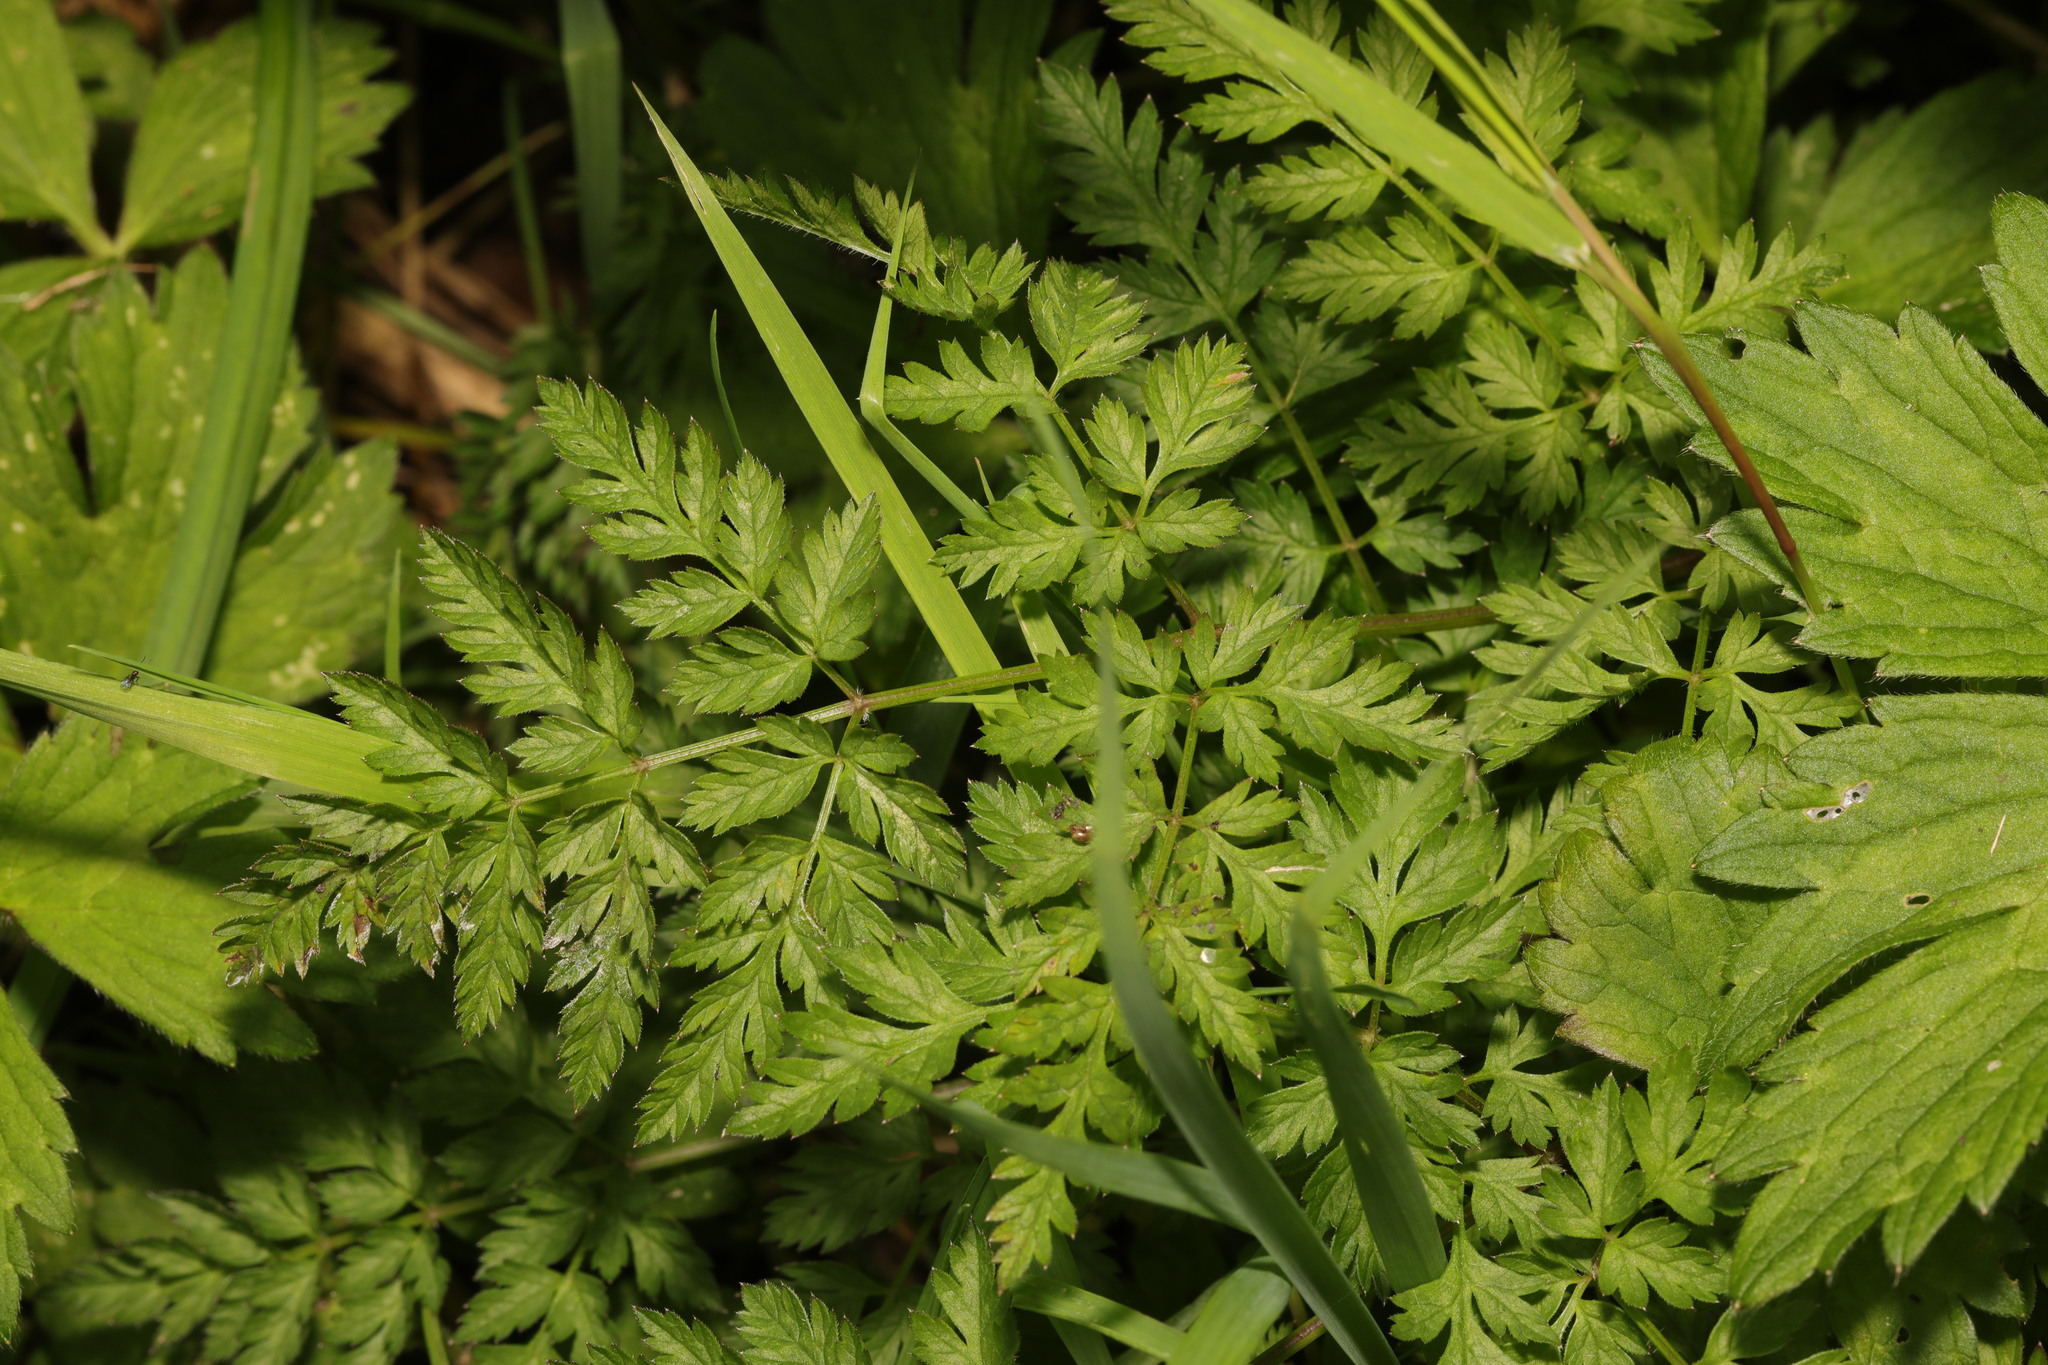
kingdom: Plantae
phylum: Tracheophyta
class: Magnoliopsida
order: Apiales
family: Apiaceae
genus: Anthriscus
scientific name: Anthriscus sylvestris
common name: Cow parsley
